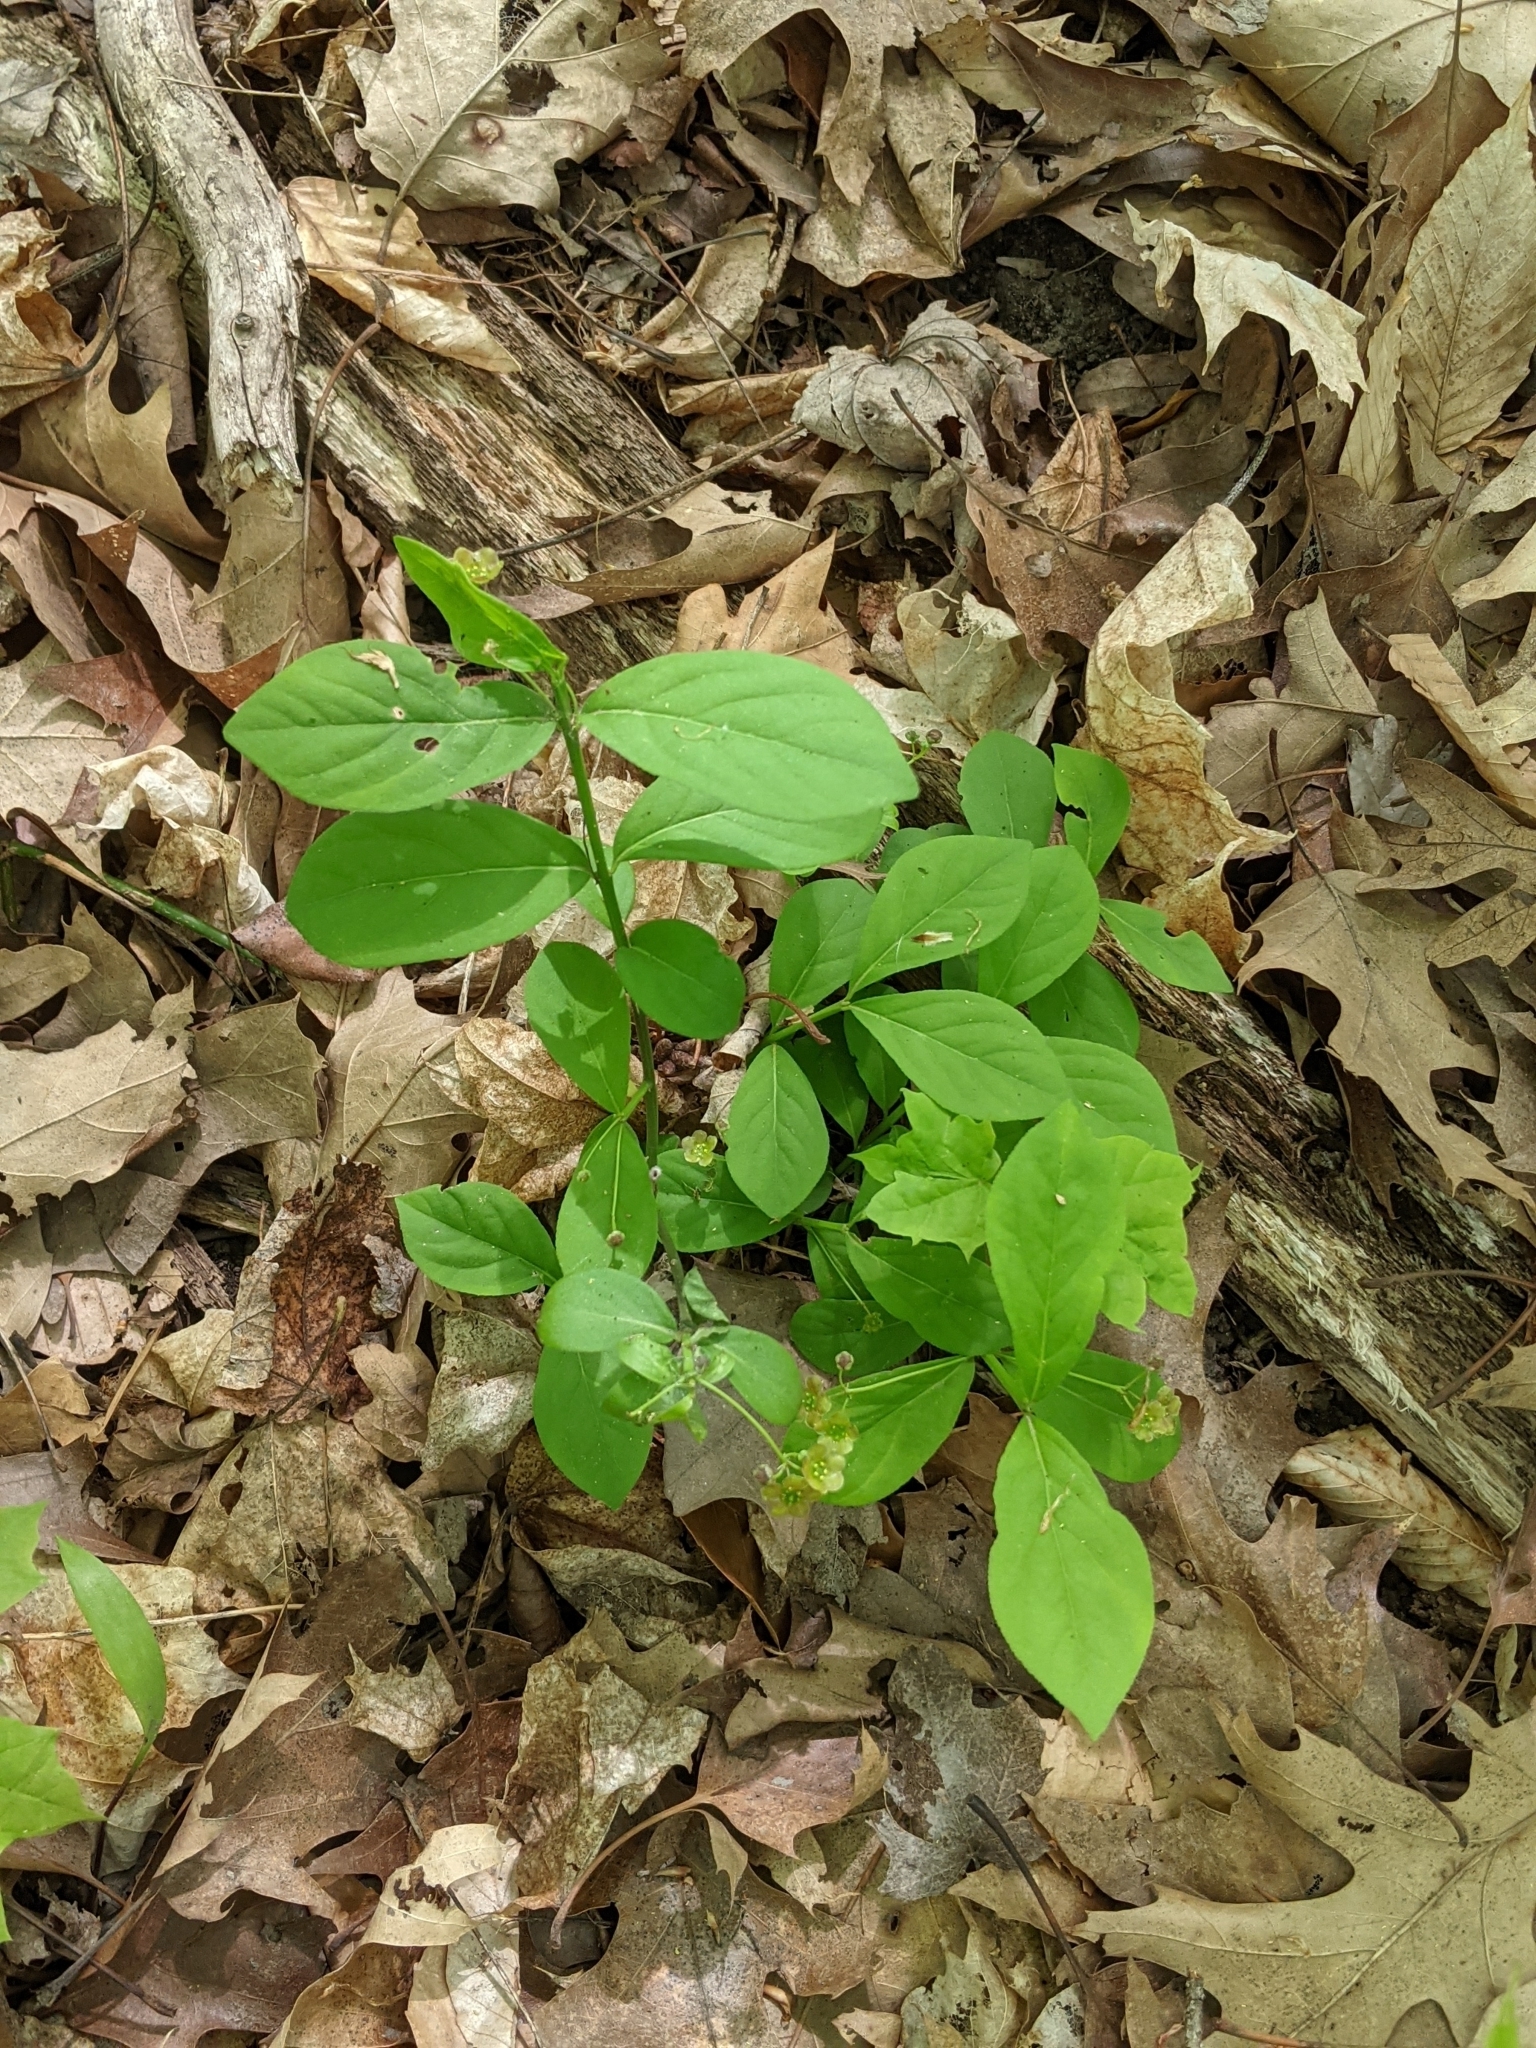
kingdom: Plantae
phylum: Tracheophyta
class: Magnoliopsida
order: Celastrales
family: Celastraceae
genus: Euonymus
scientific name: Euonymus obovatus
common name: Running strawberry-bush
